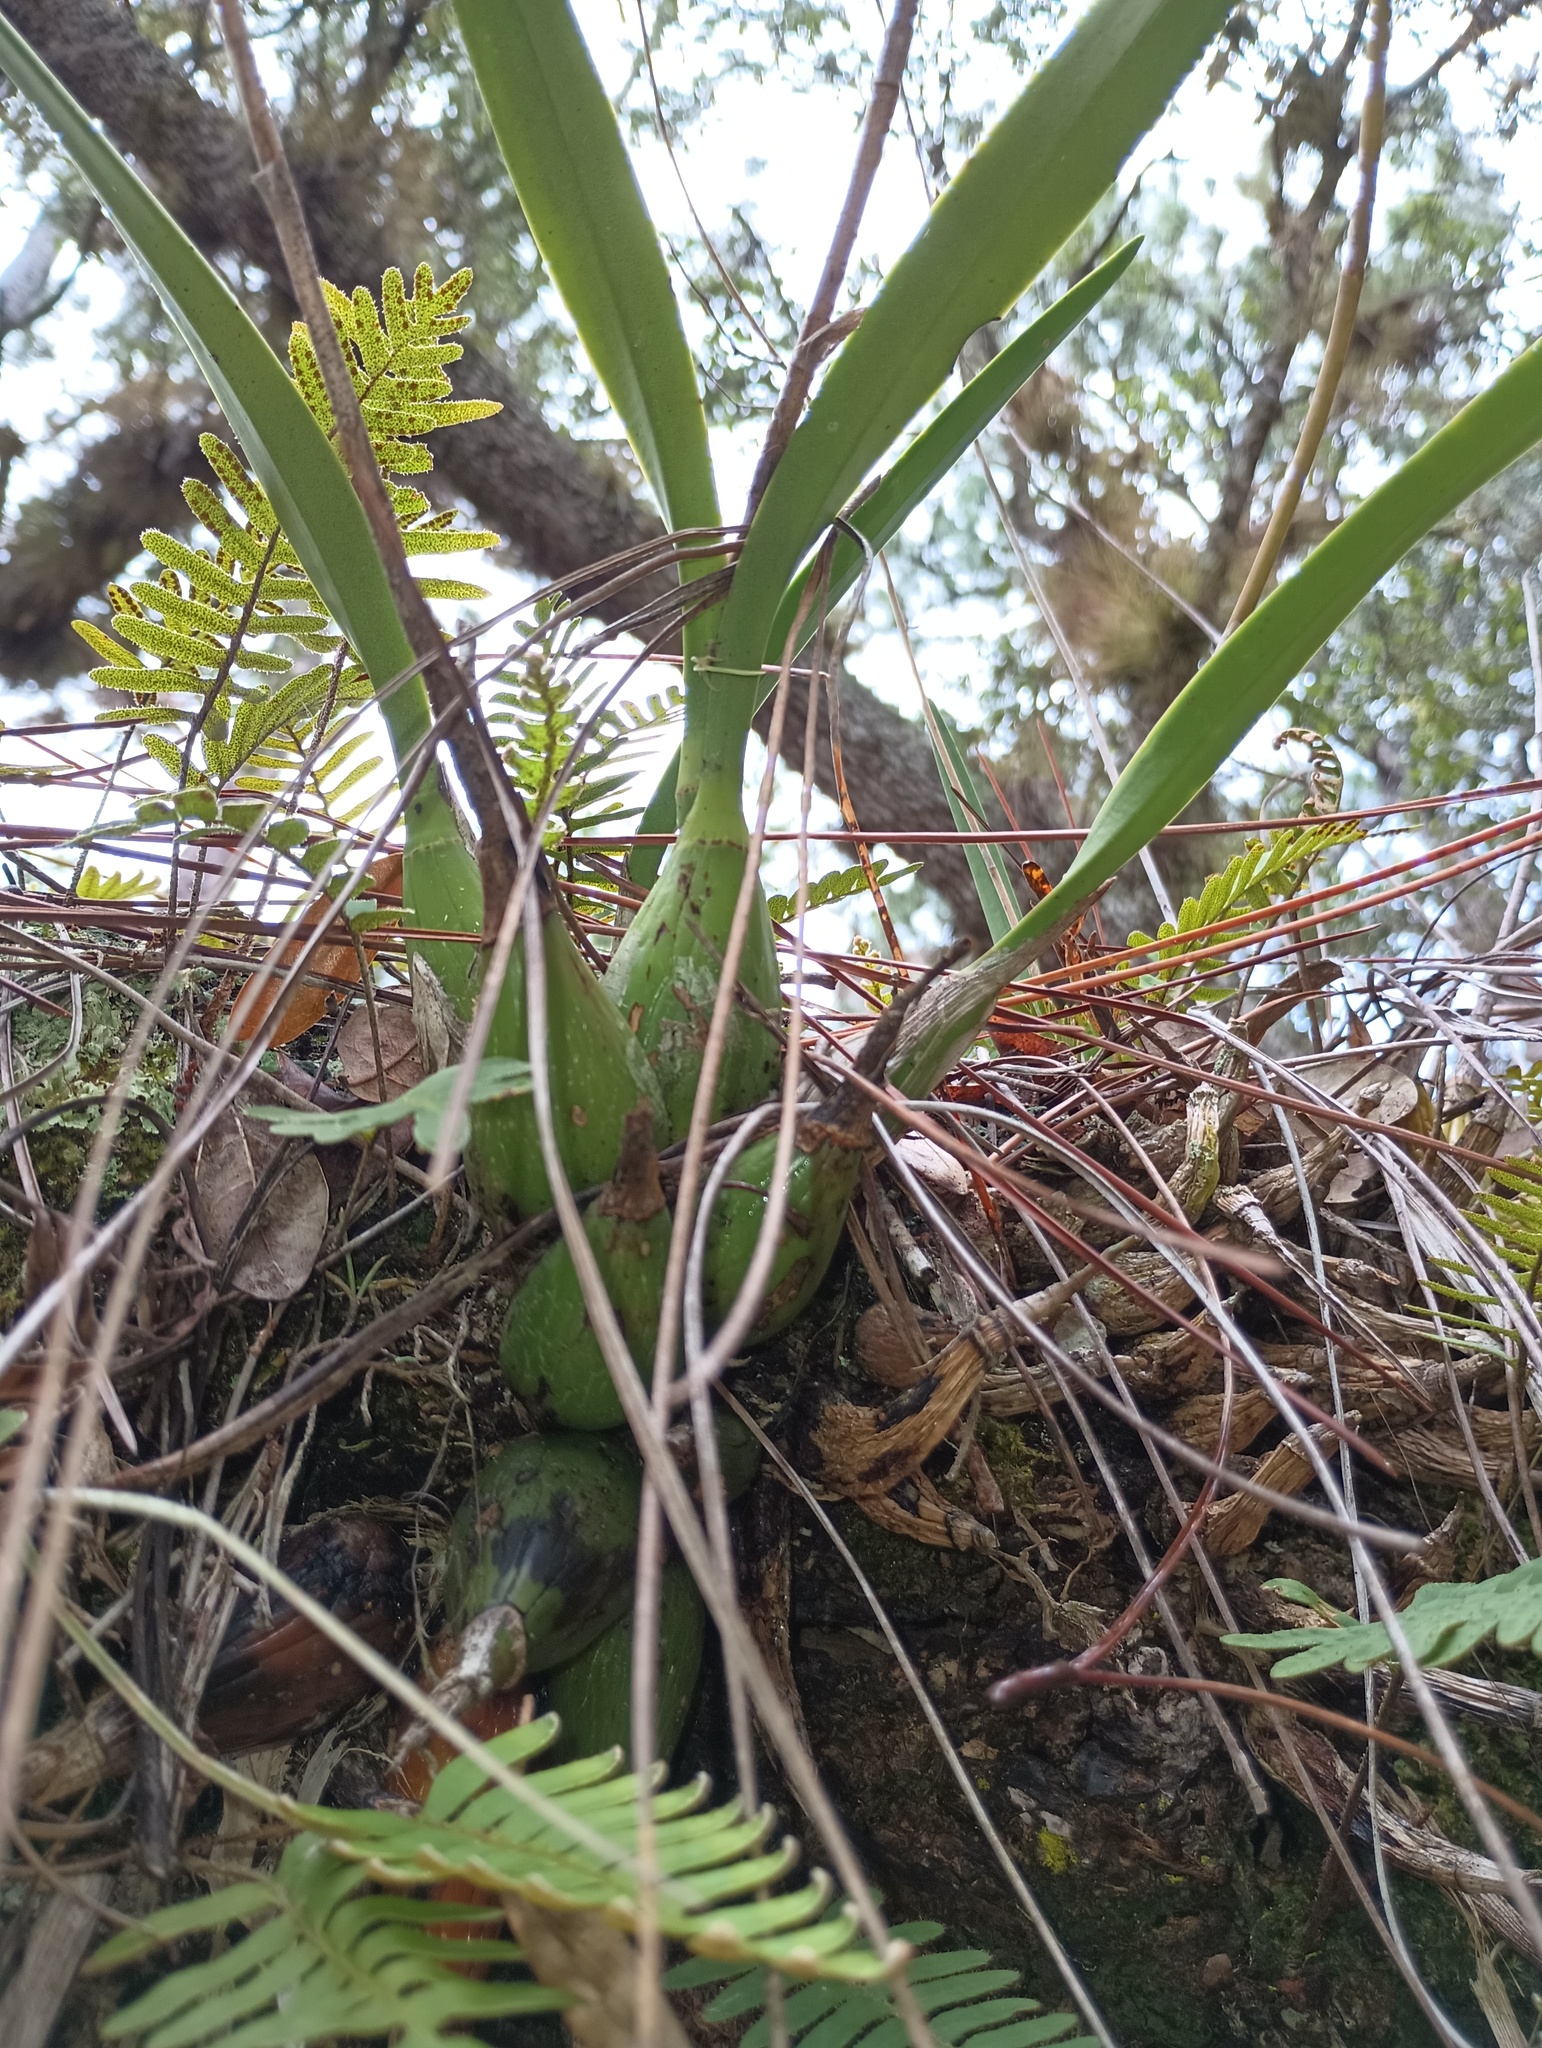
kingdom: Plantae
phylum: Tracheophyta
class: Liliopsida
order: Asparagales
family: Orchidaceae
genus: Encyclia
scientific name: Encyclia tampensis
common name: Florida butterfly orchid
